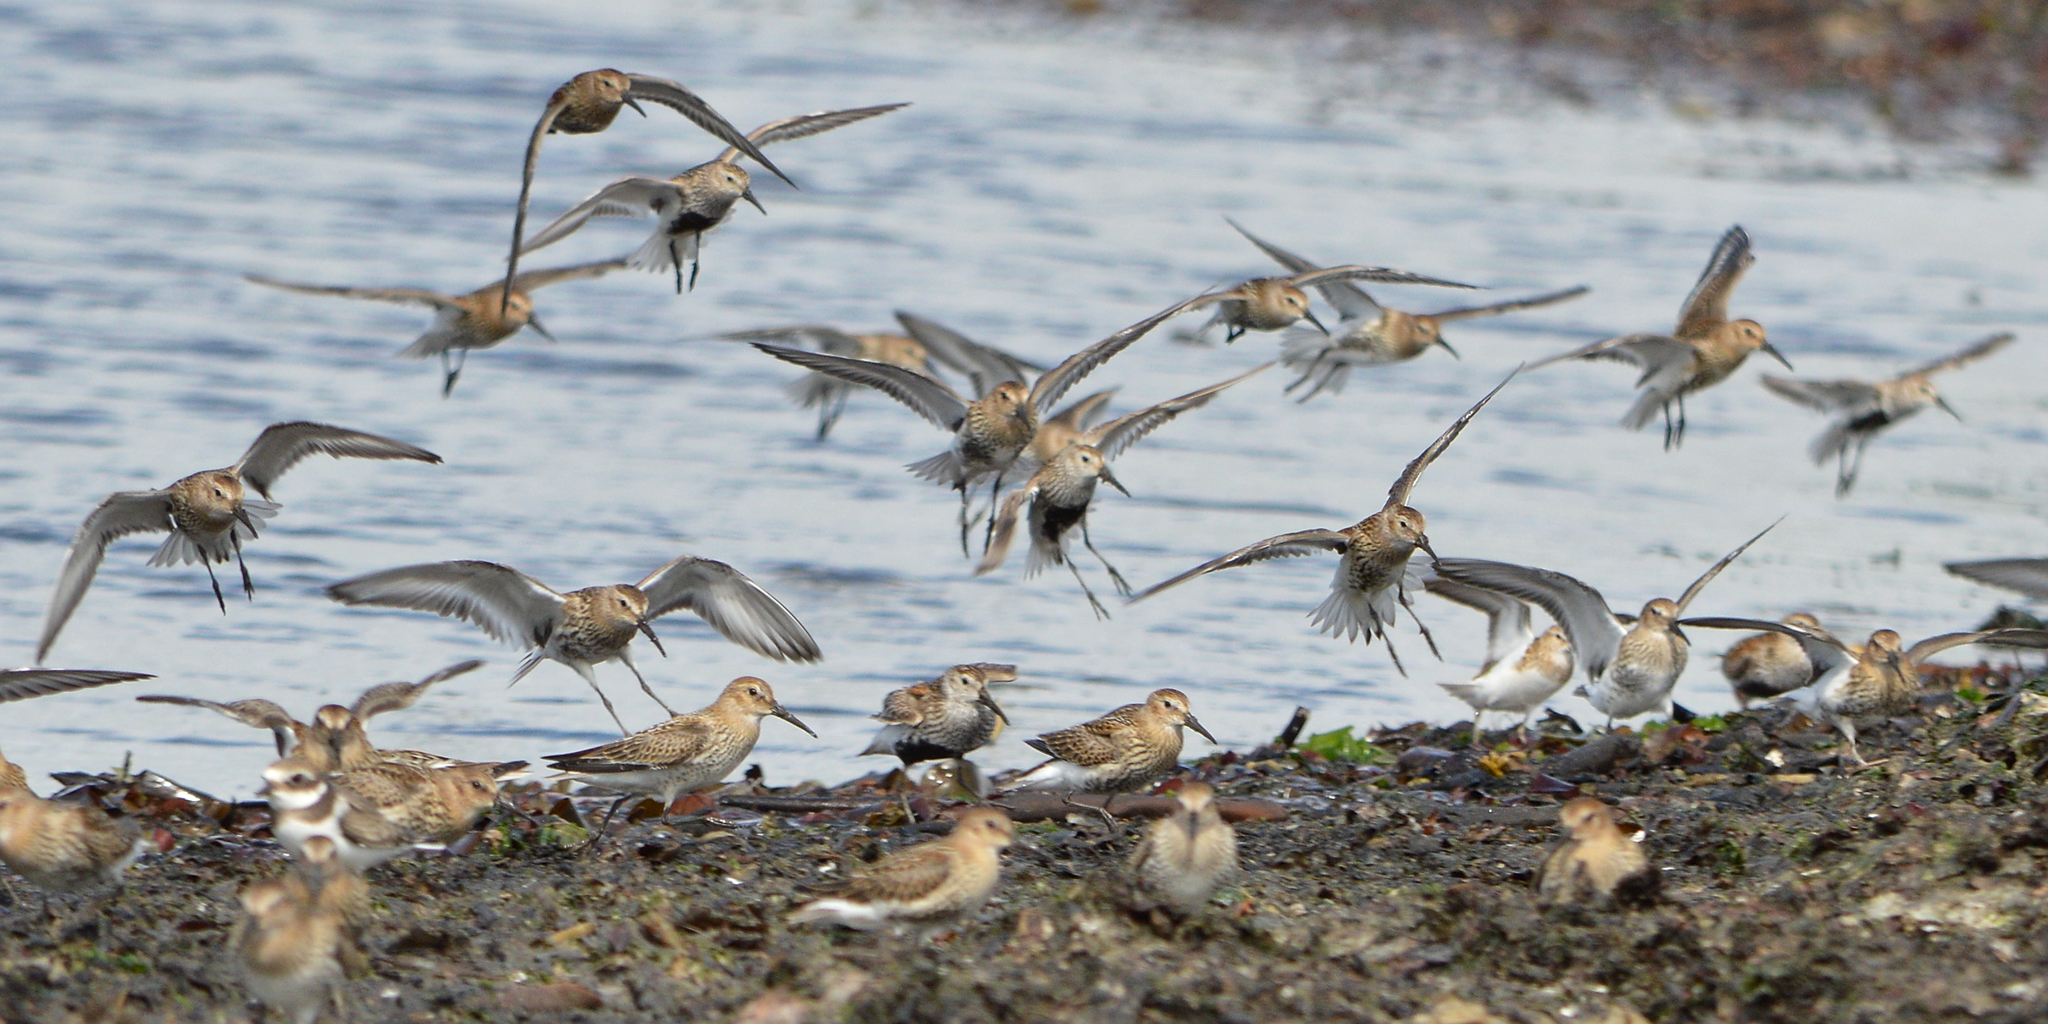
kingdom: Animalia
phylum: Chordata
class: Aves
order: Charadriiformes
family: Scolopacidae
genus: Calidris
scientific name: Calidris alpina
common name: Dunlin
